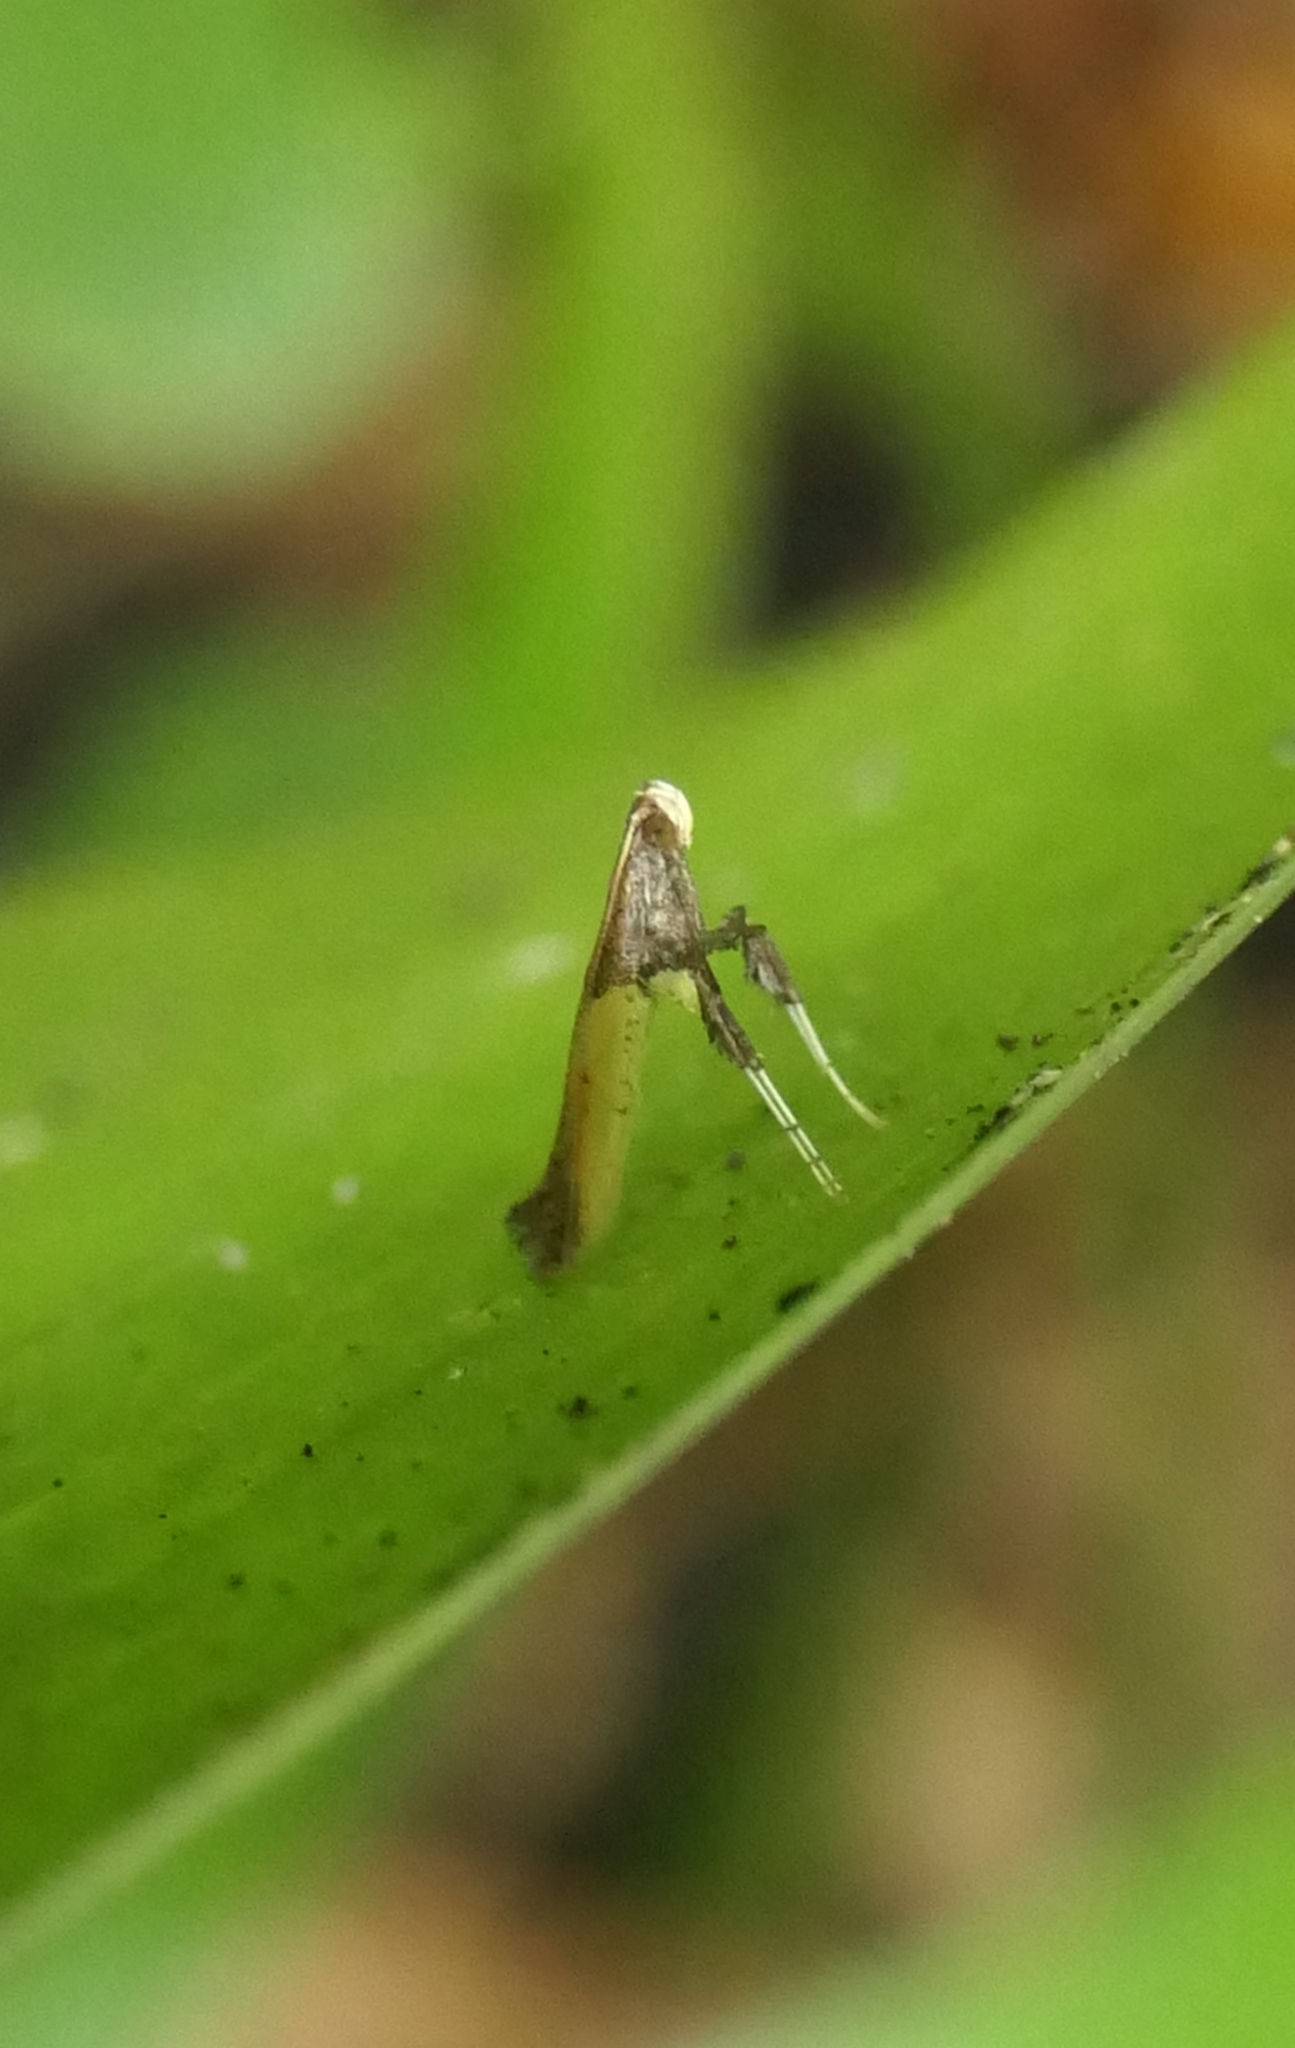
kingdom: Animalia
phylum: Arthropoda
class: Insecta
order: Lepidoptera
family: Gracillariidae
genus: Caloptilia
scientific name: Caloptilia azaleella
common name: Azalea leafminer
